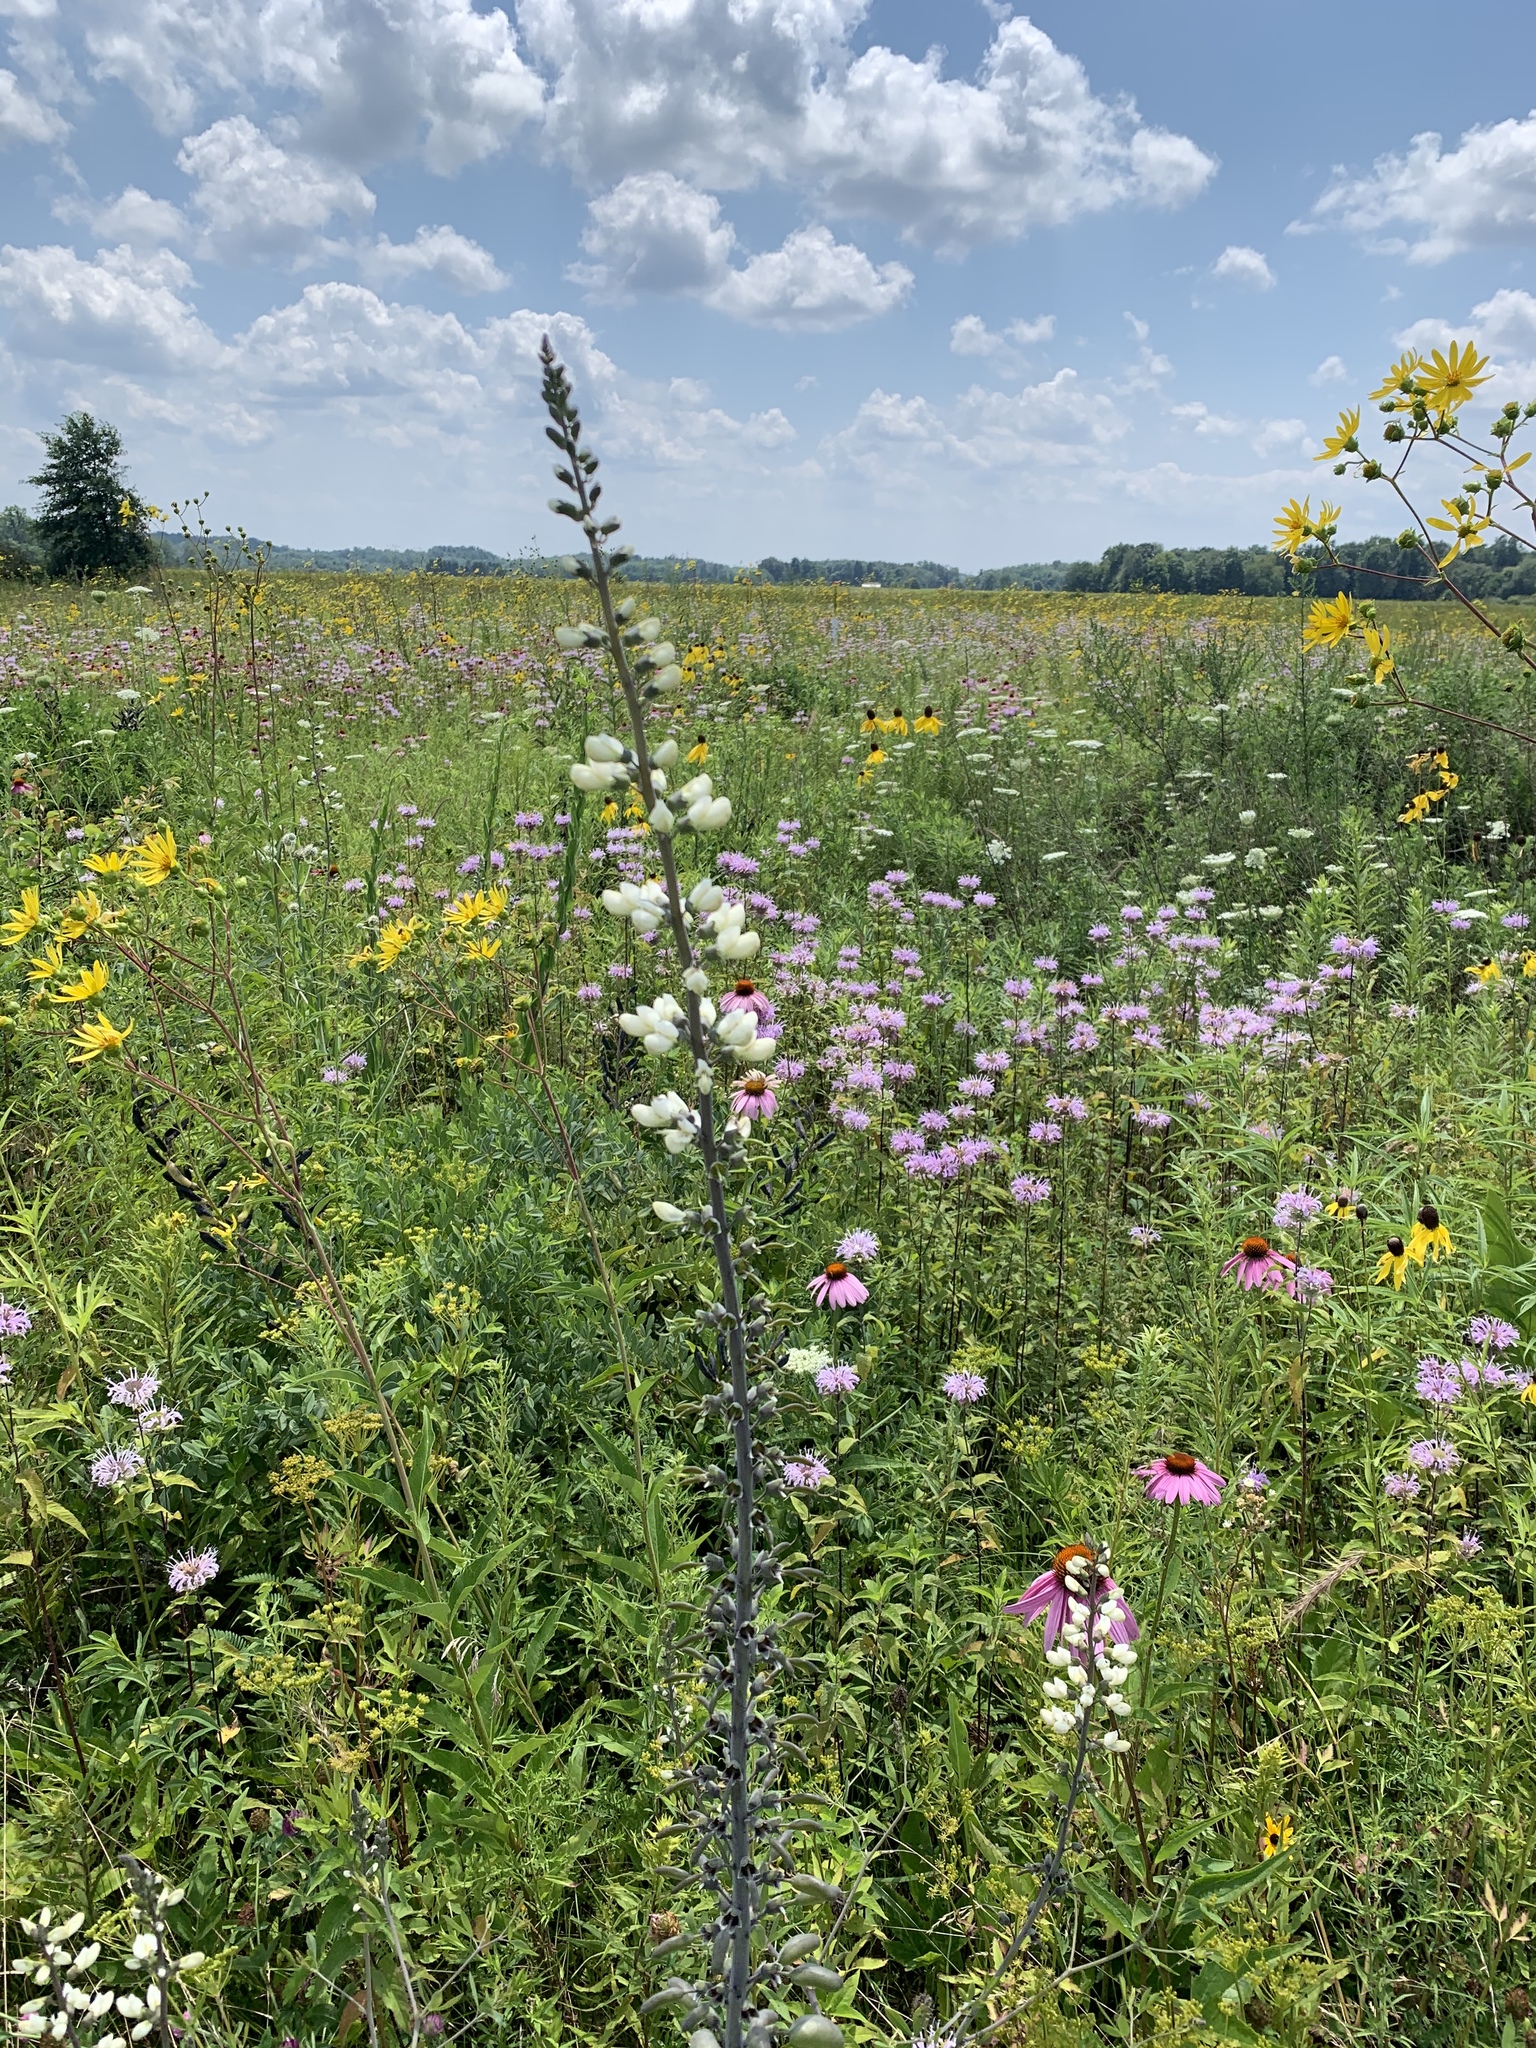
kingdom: Plantae
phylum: Tracheophyta
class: Magnoliopsida
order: Fabales
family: Fabaceae
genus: Baptisia
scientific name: Baptisia alba
